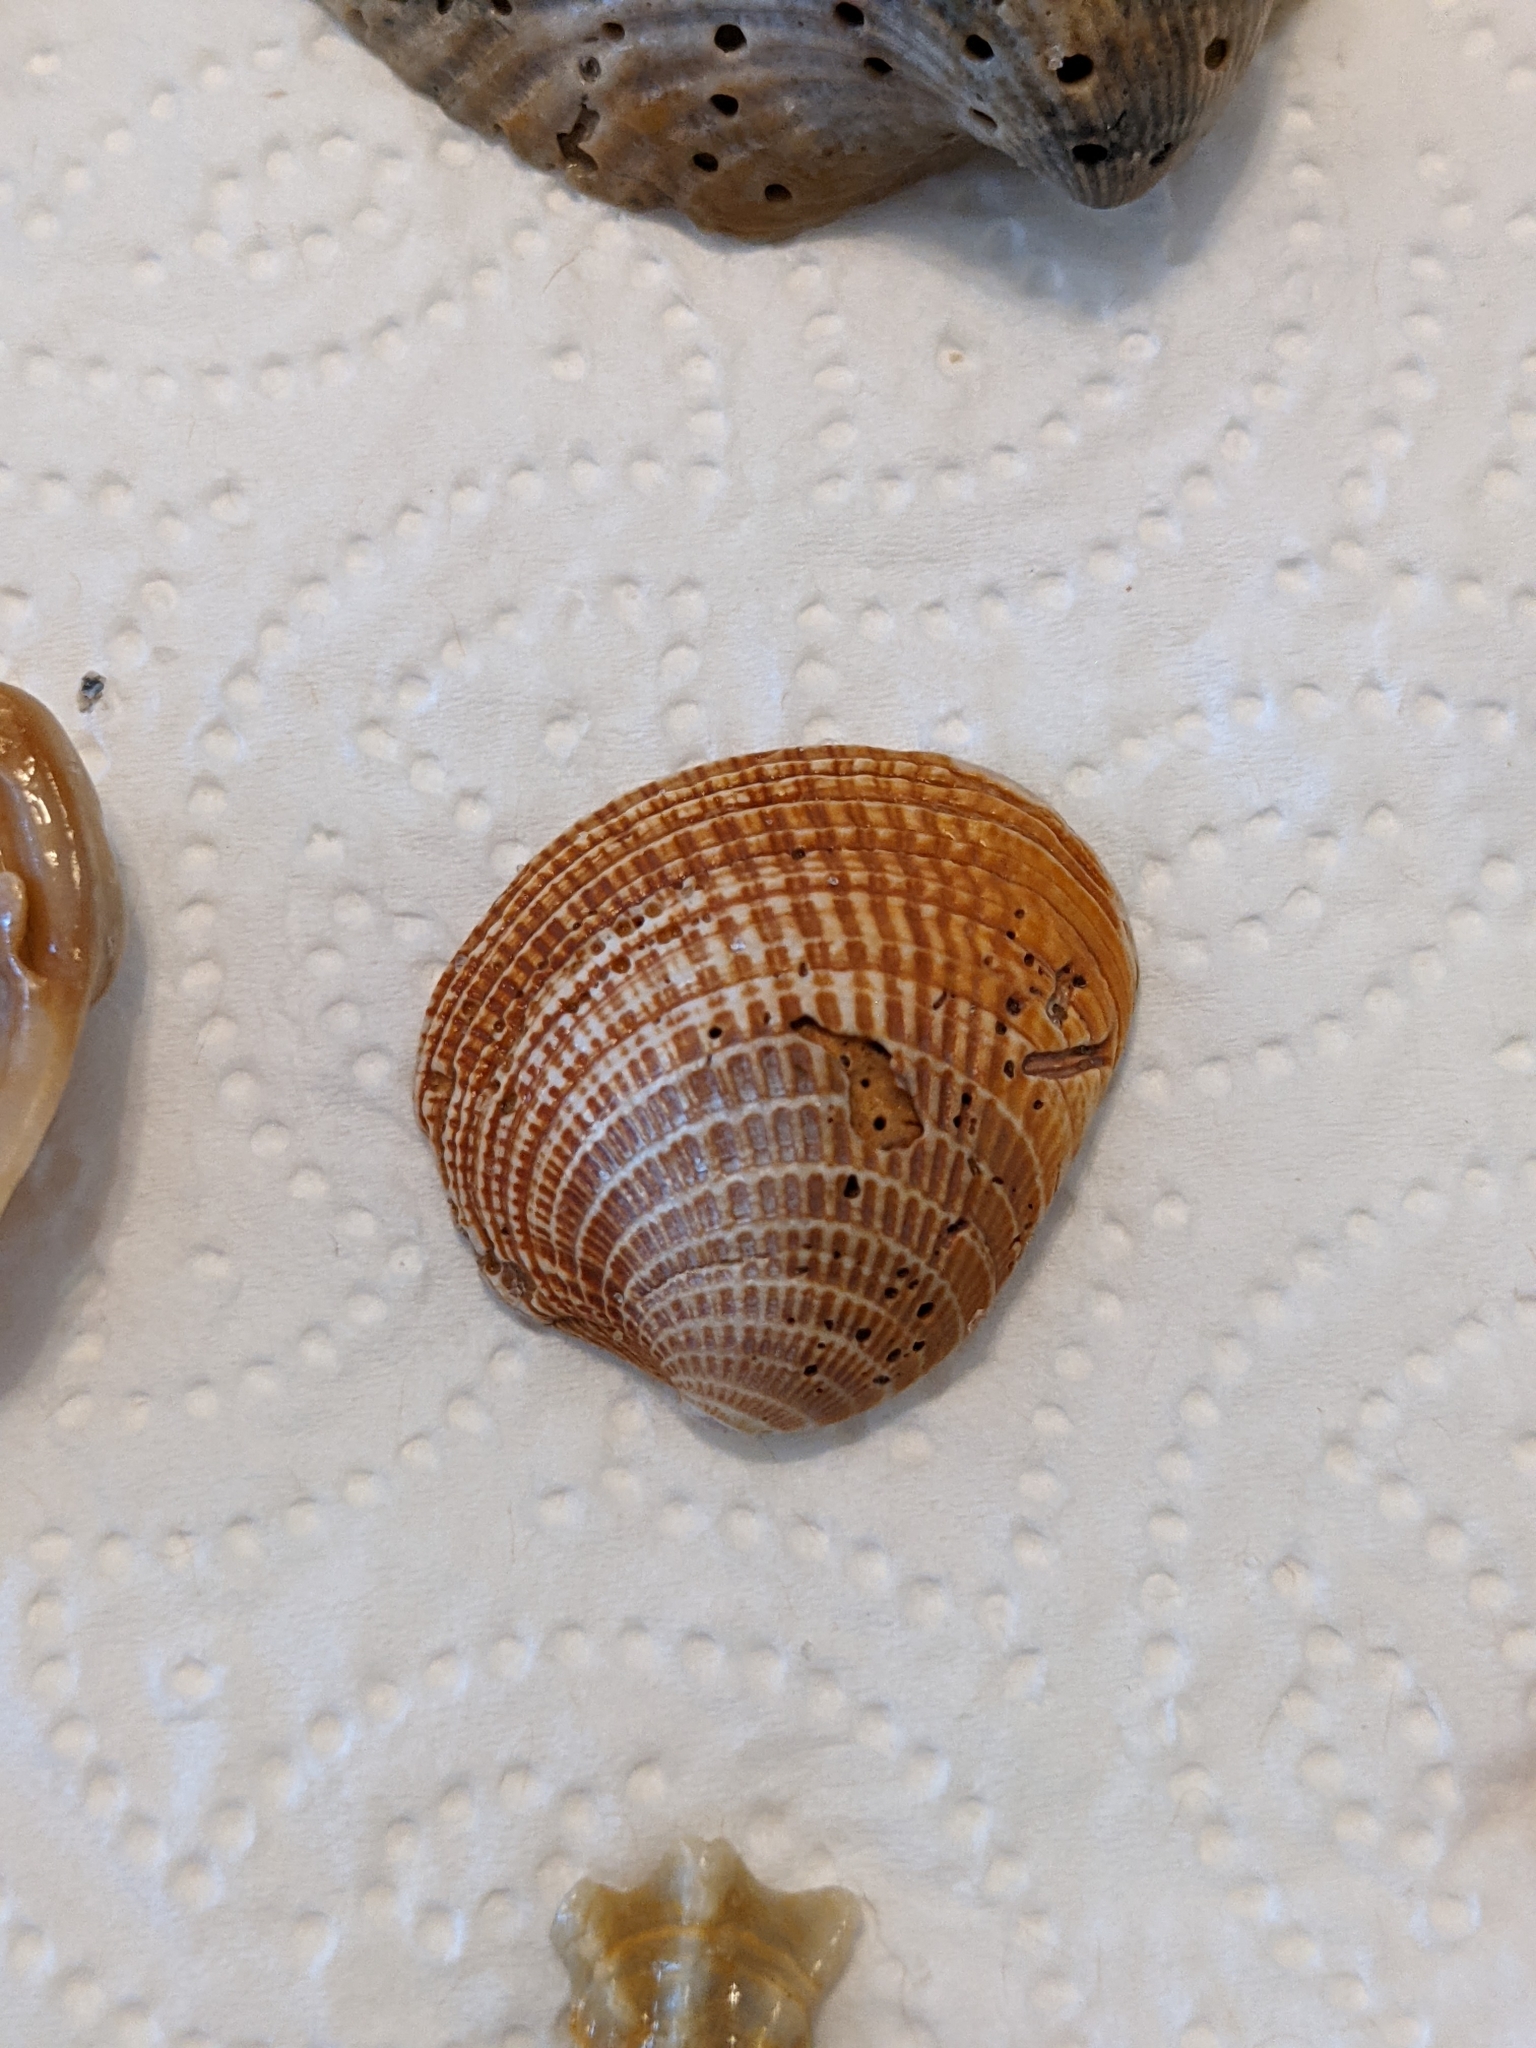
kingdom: Animalia
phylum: Mollusca
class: Bivalvia
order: Venerida
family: Veneridae
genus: Chione
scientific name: Chione elevata
